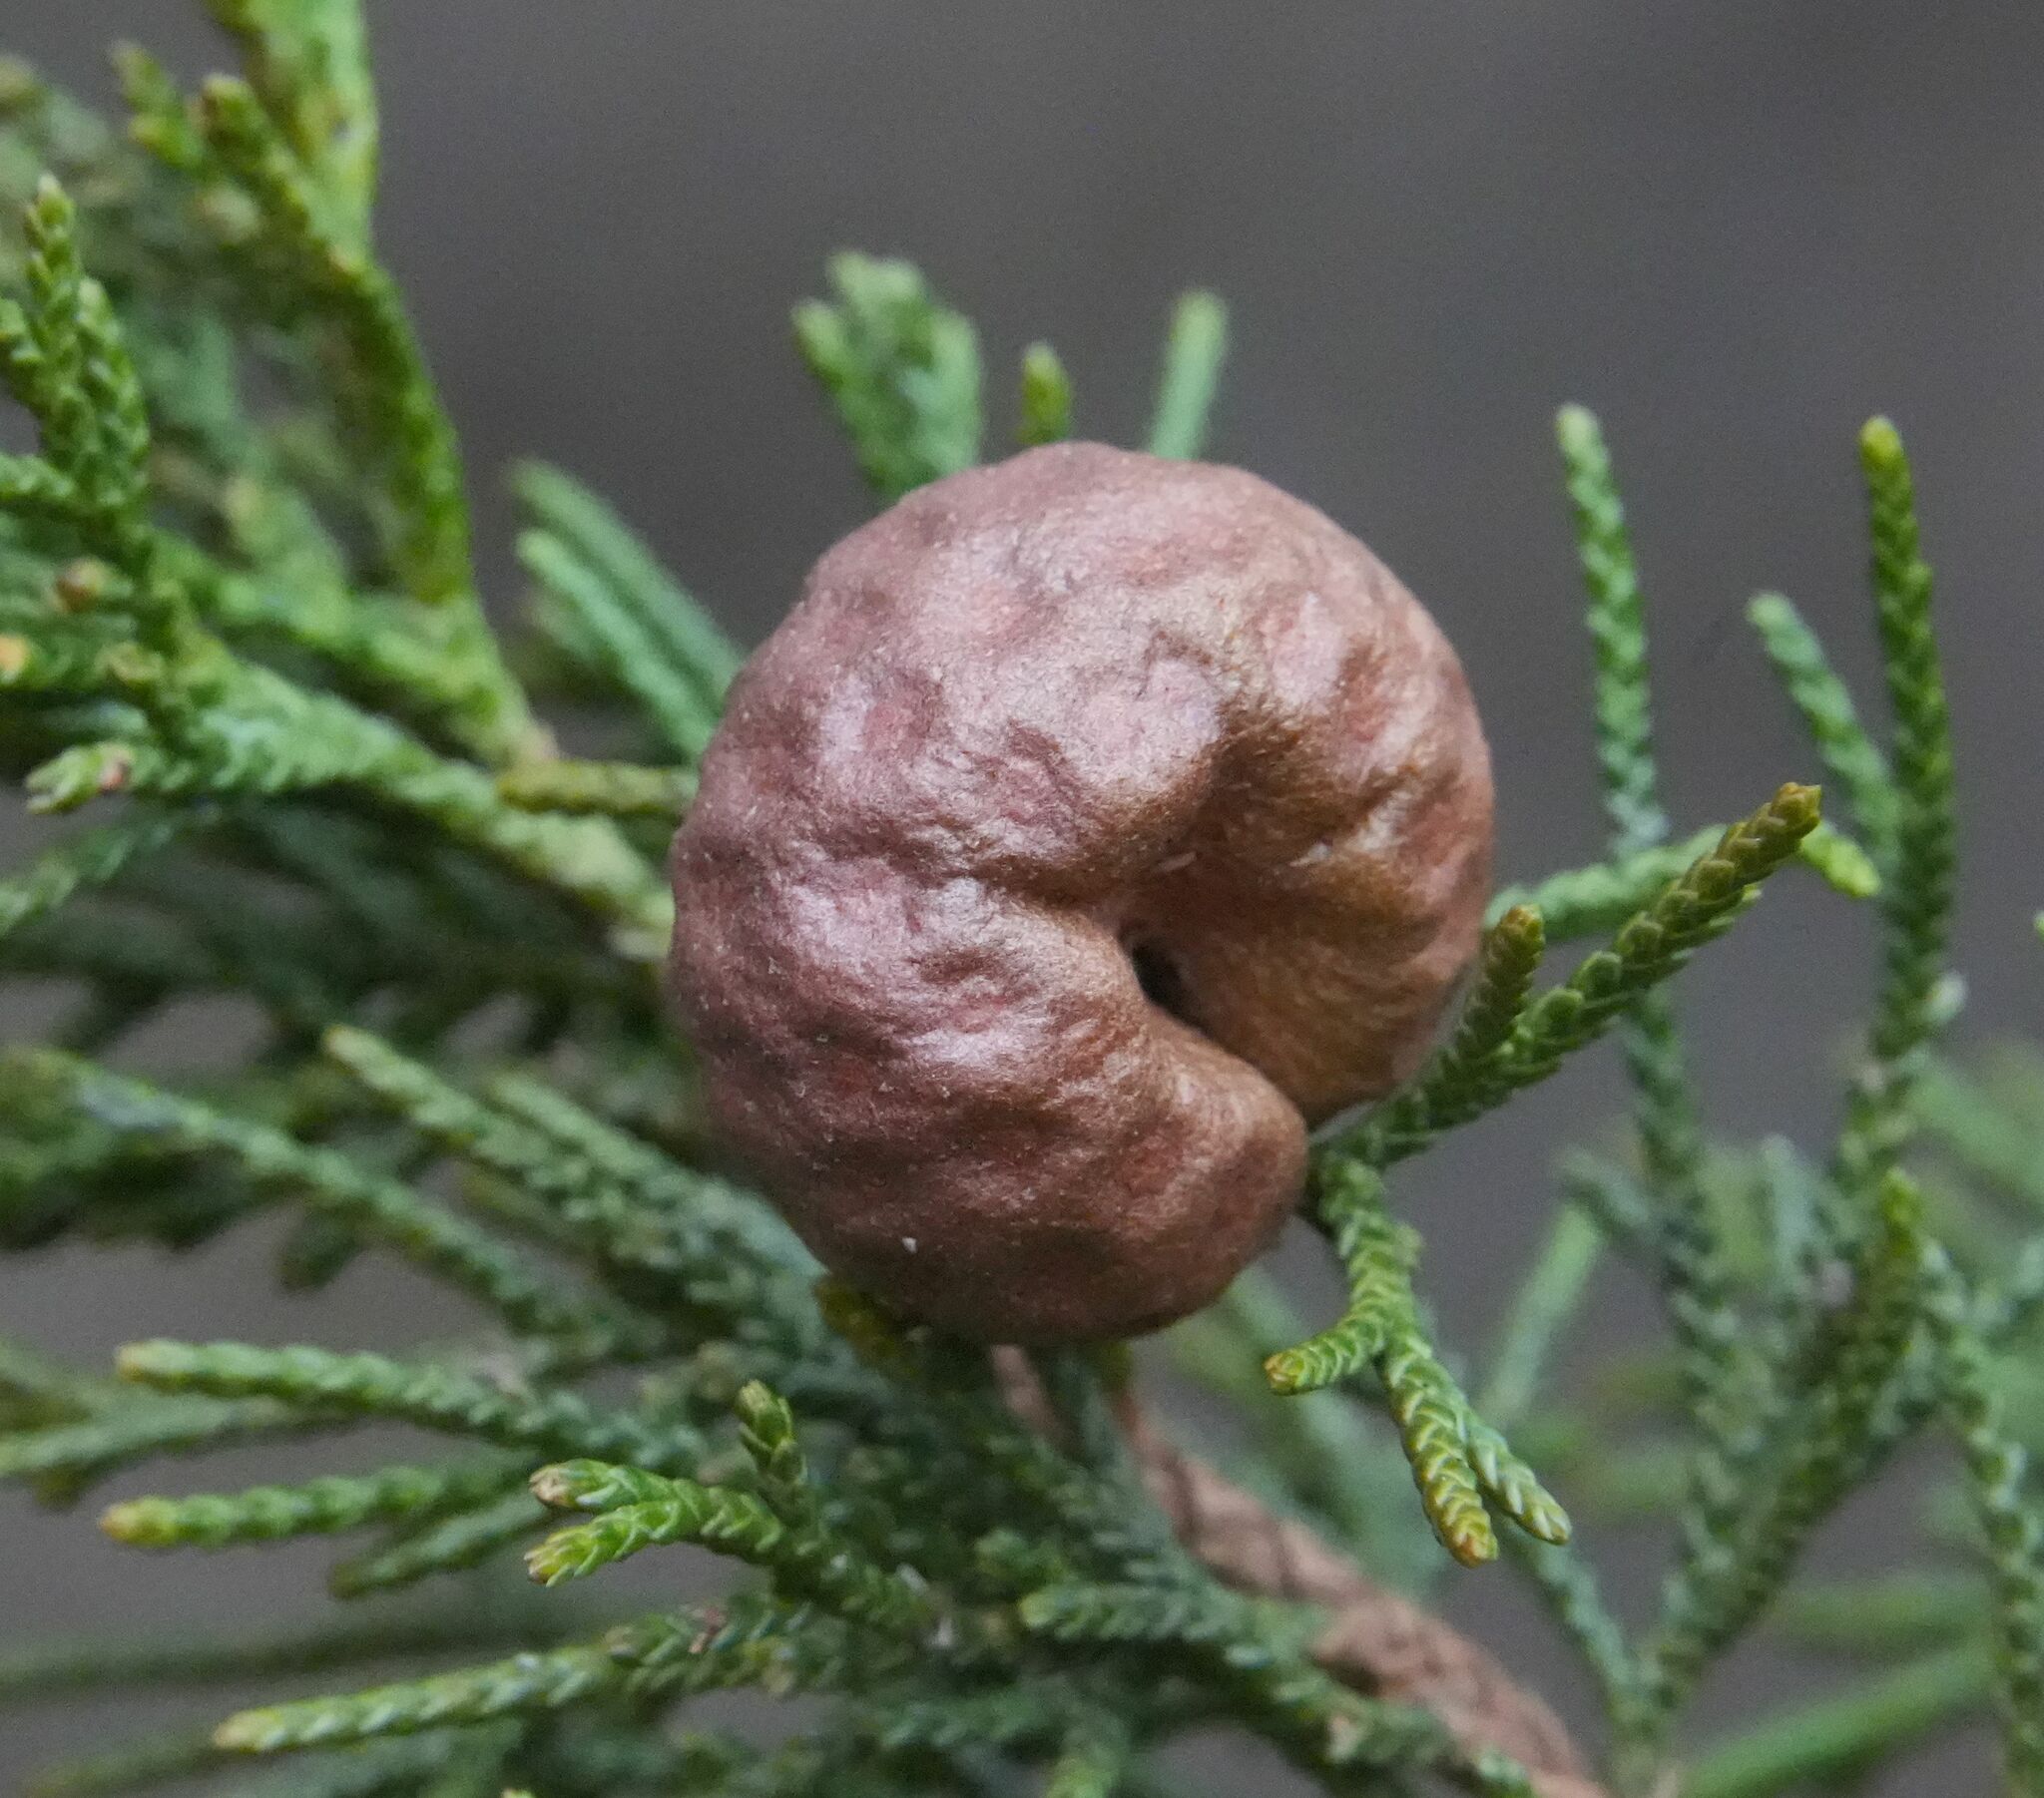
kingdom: Fungi
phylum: Basidiomycota
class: Pucciniomycetes
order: Pucciniales
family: Gymnosporangiaceae
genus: Gymnosporangium
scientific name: Gymnosporangium juniperi-virginianae
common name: Juniper-apple rust
